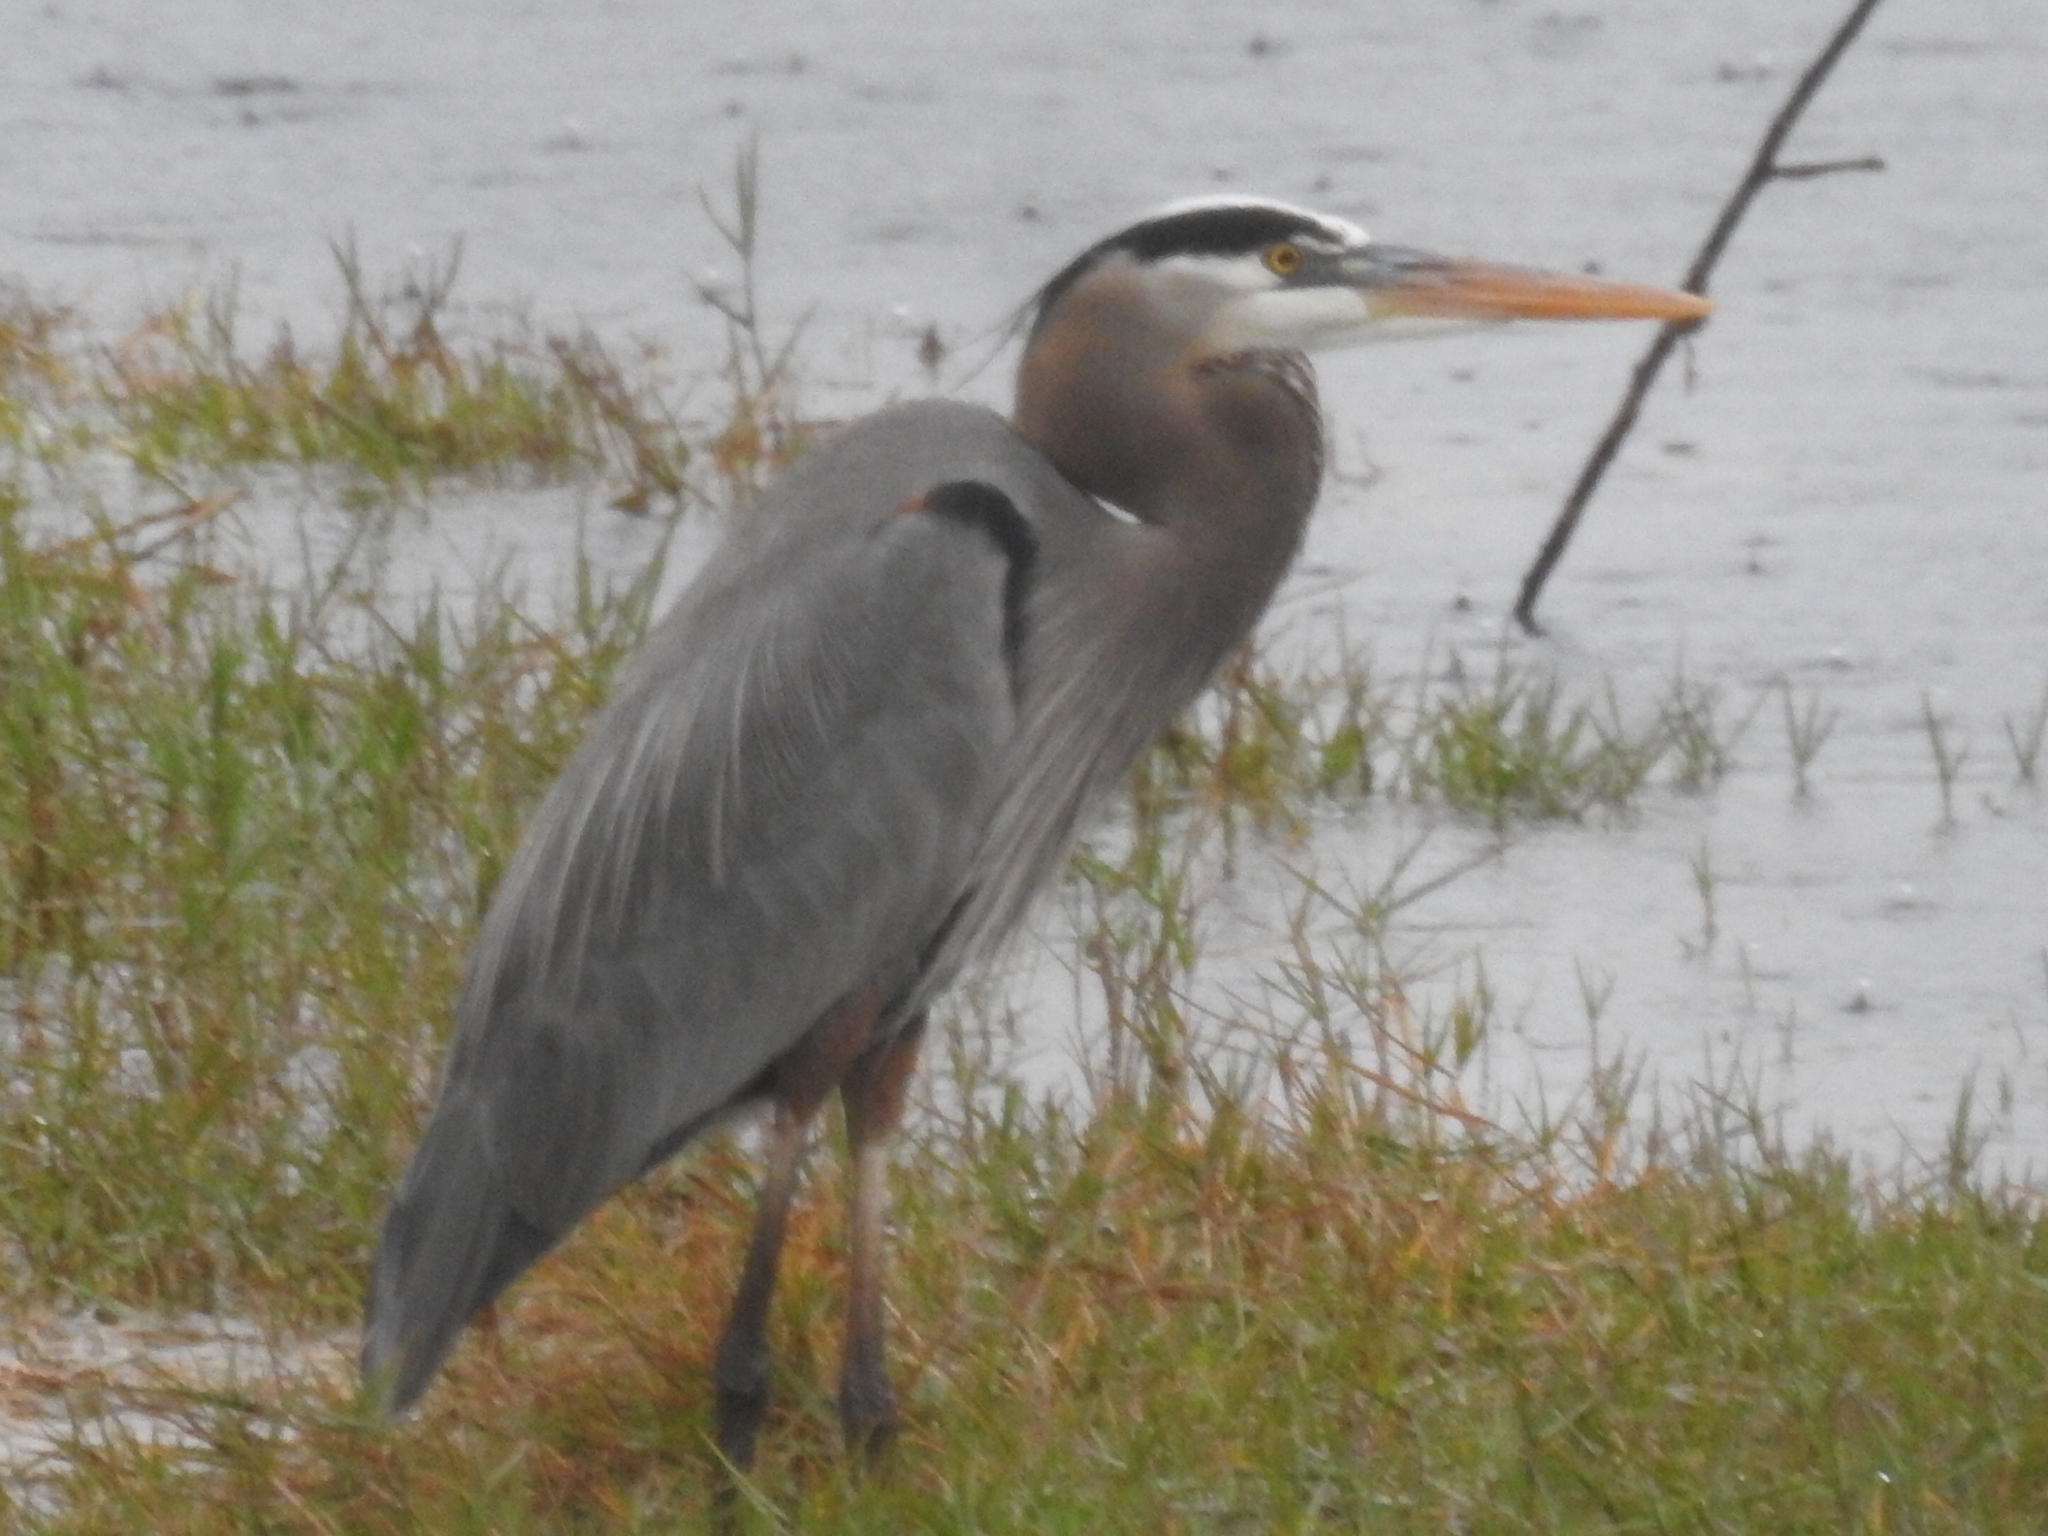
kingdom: Animalia
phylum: Chordata
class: Aves
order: Pelecaniformes
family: Ardeidae
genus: Ardea
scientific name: Ardea herodias
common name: Great blue heron
